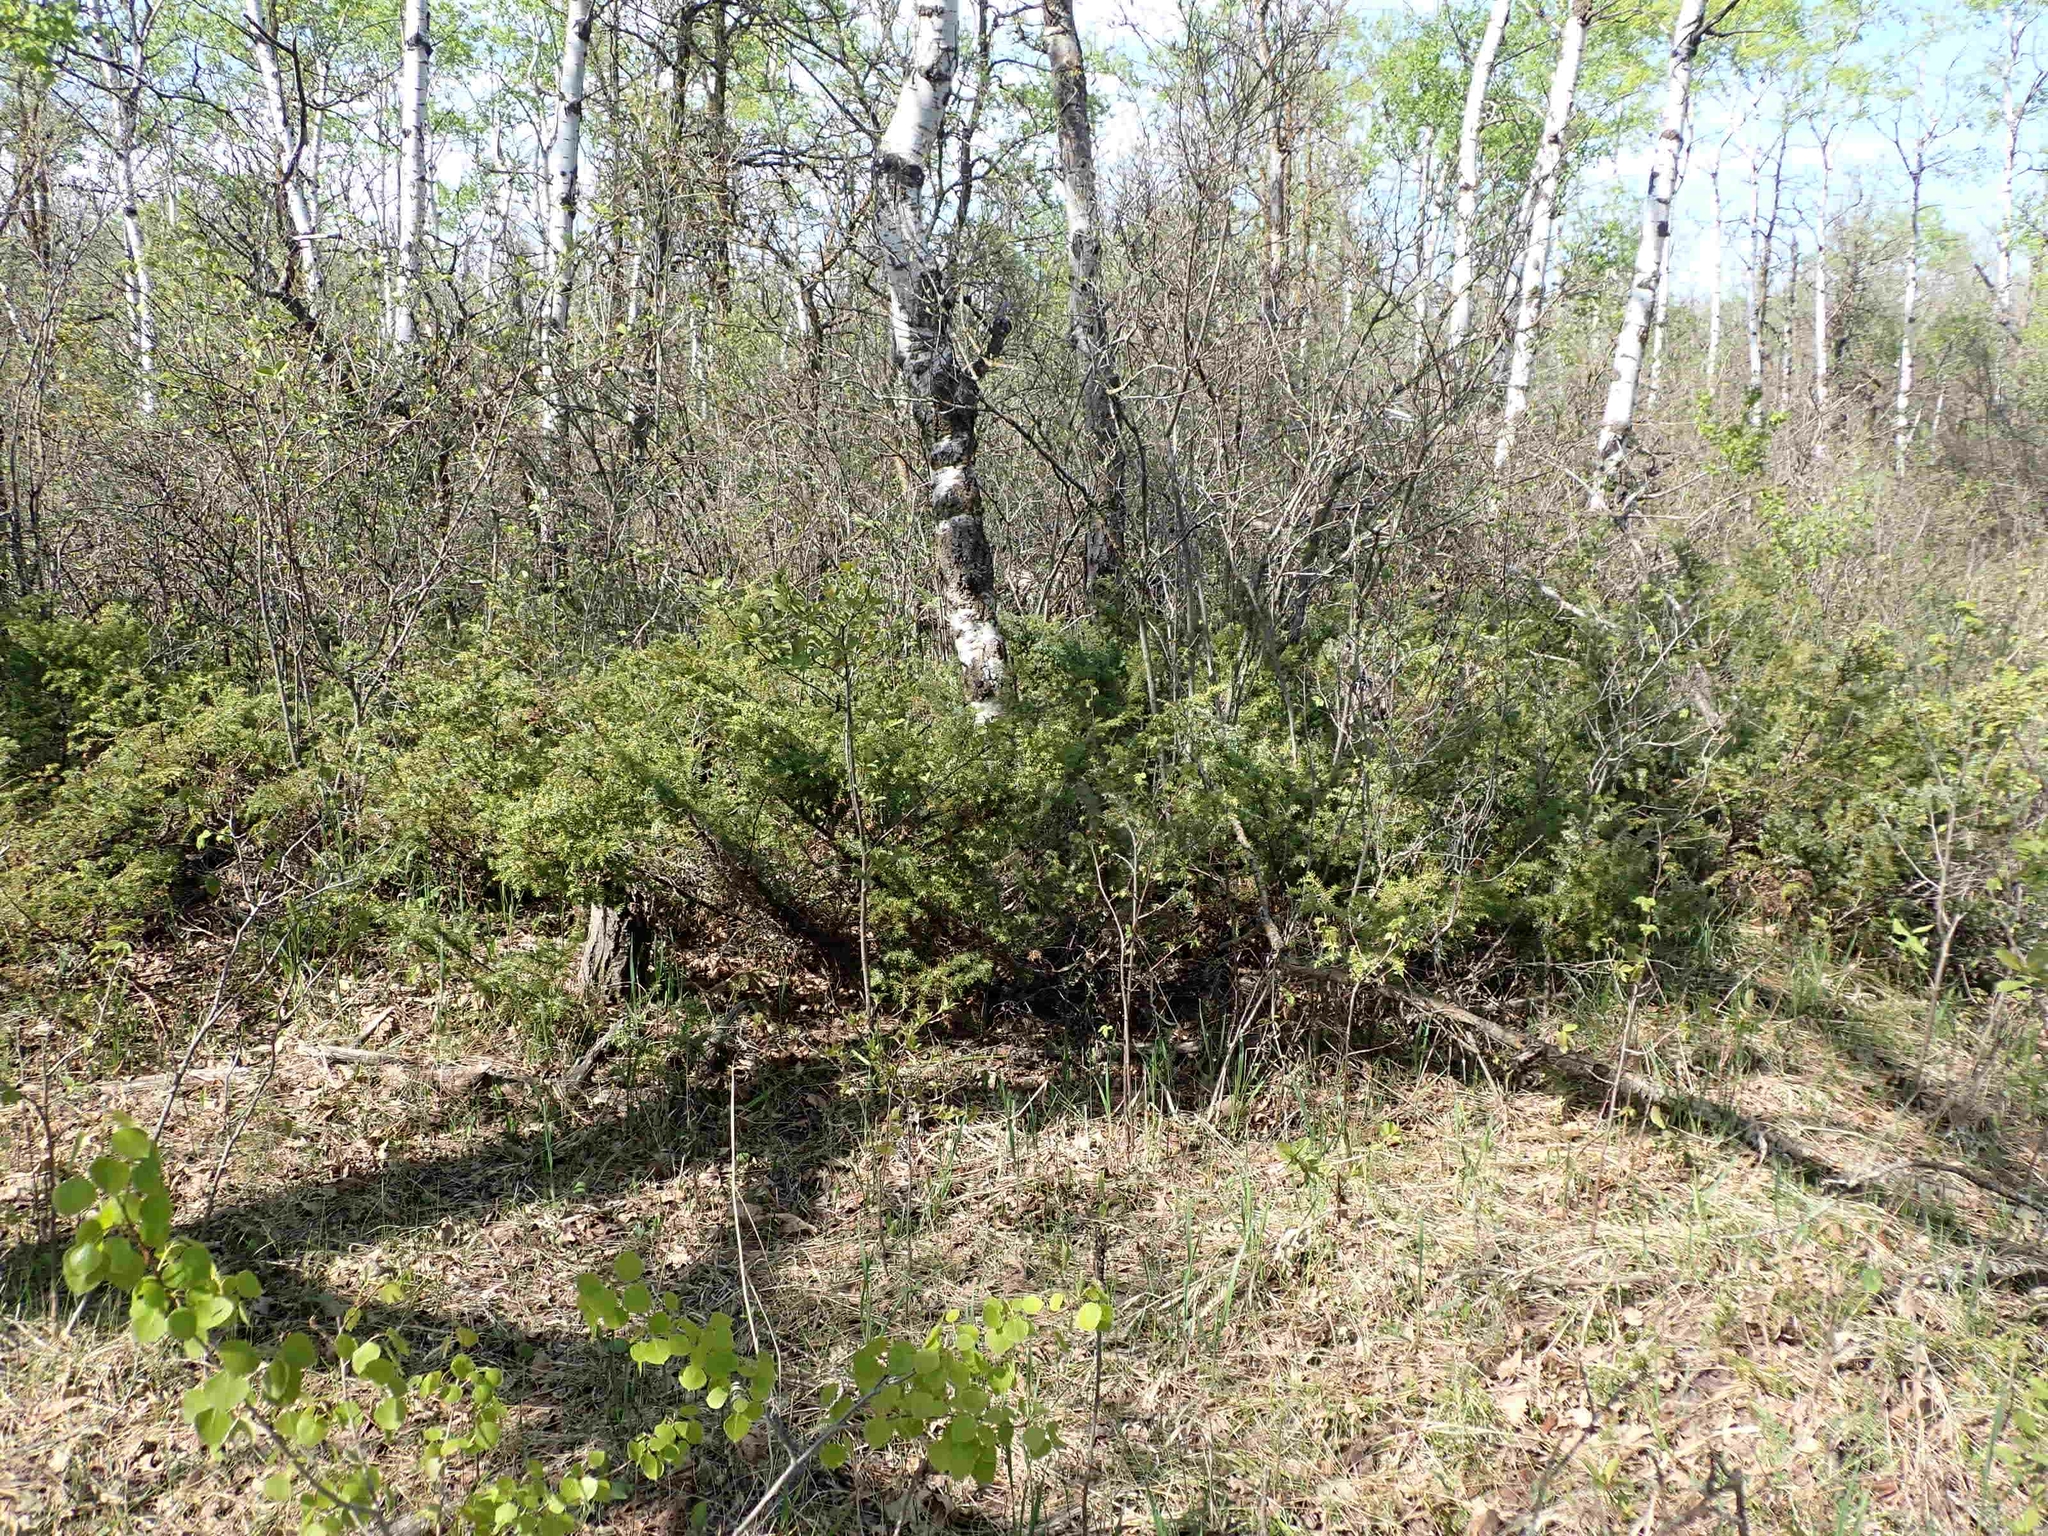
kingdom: Plantae
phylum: Tracheophyta
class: Pinopsida
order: Pinales
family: Cupressaceae
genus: Juniperus
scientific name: Juniperus communis
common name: Common juniper
